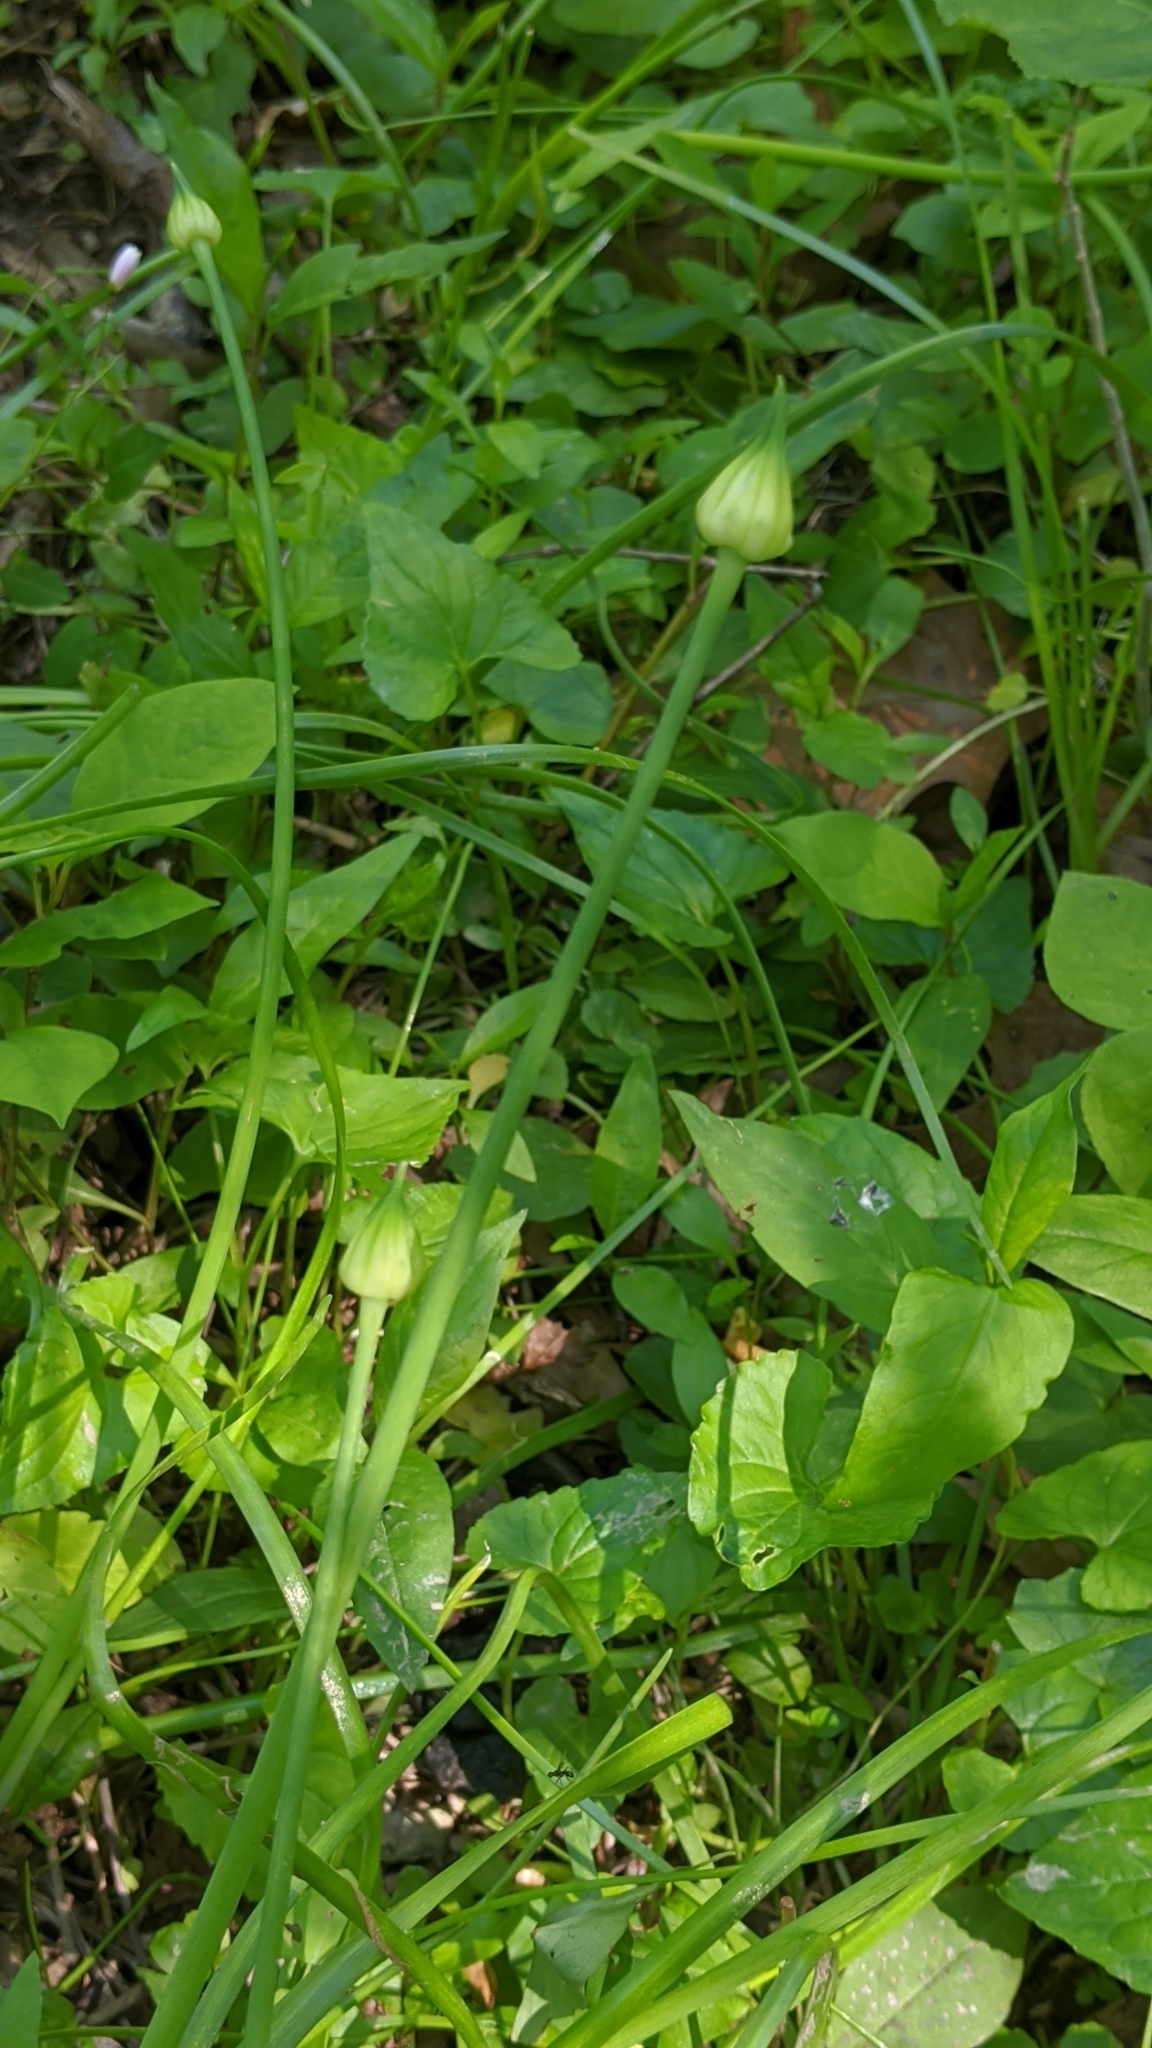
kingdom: Plantae
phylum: Tracheophyta
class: Liliopsida
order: Asparagales
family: Amaryllidaceae
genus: Allium
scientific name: Allium canadense
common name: Meadow garlic
